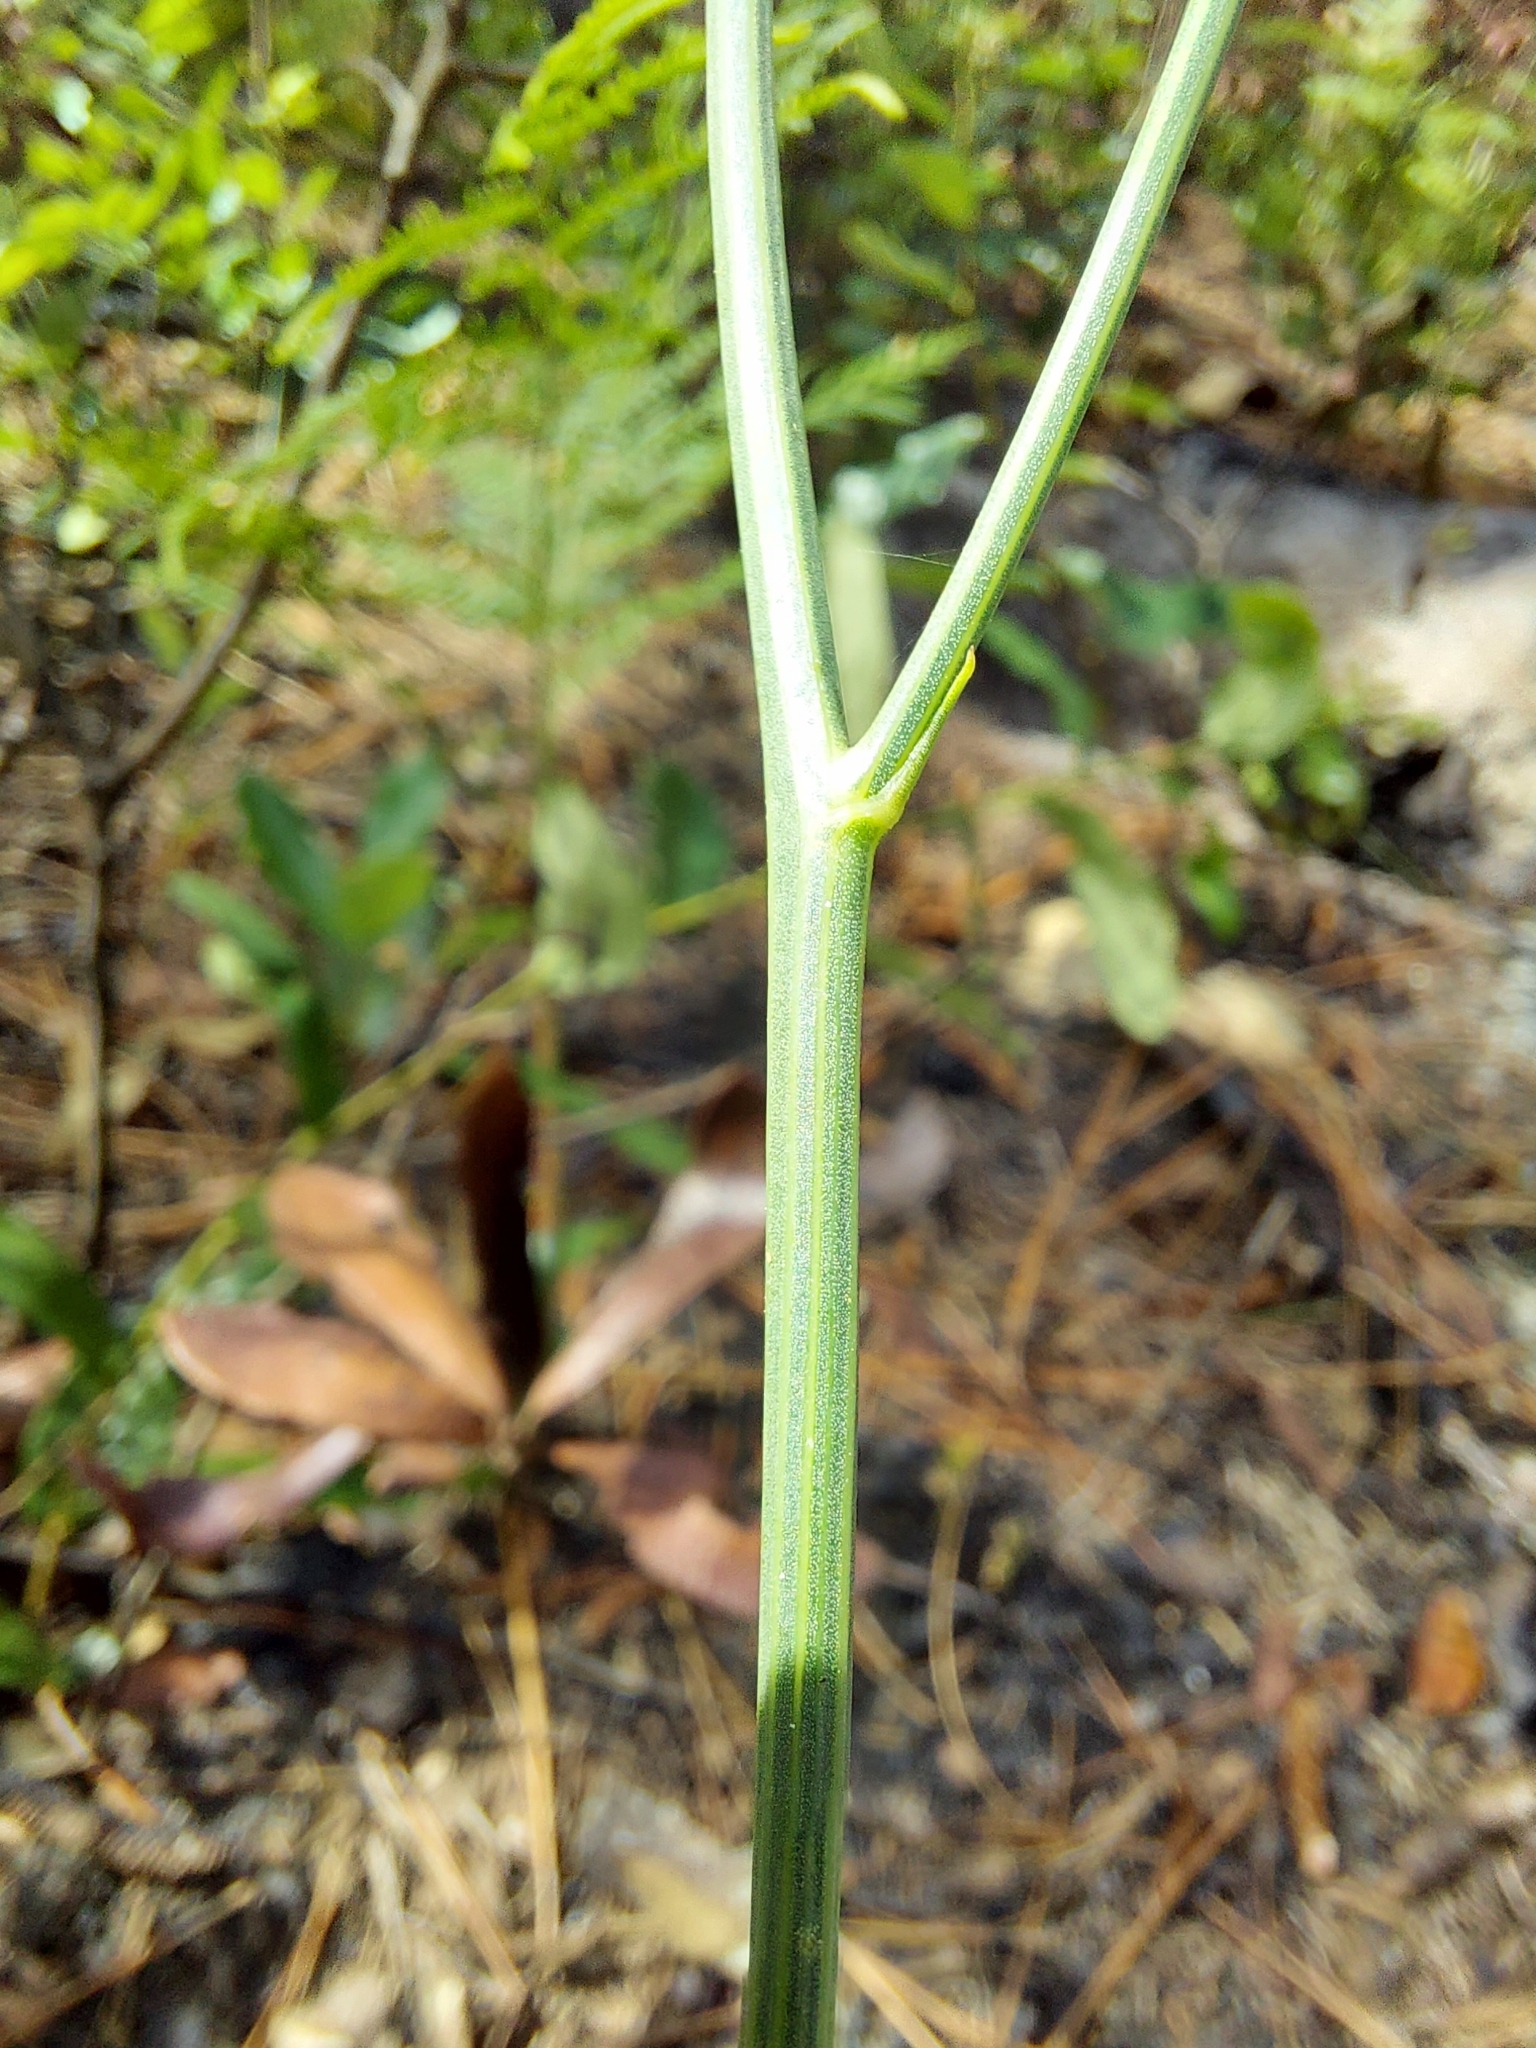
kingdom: Plantae
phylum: Tracheophyta
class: Magnoliopsida
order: Asterales
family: Asteraceae
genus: Lygodesmia
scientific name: Lygodesmia aphylla
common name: Rose-rush
